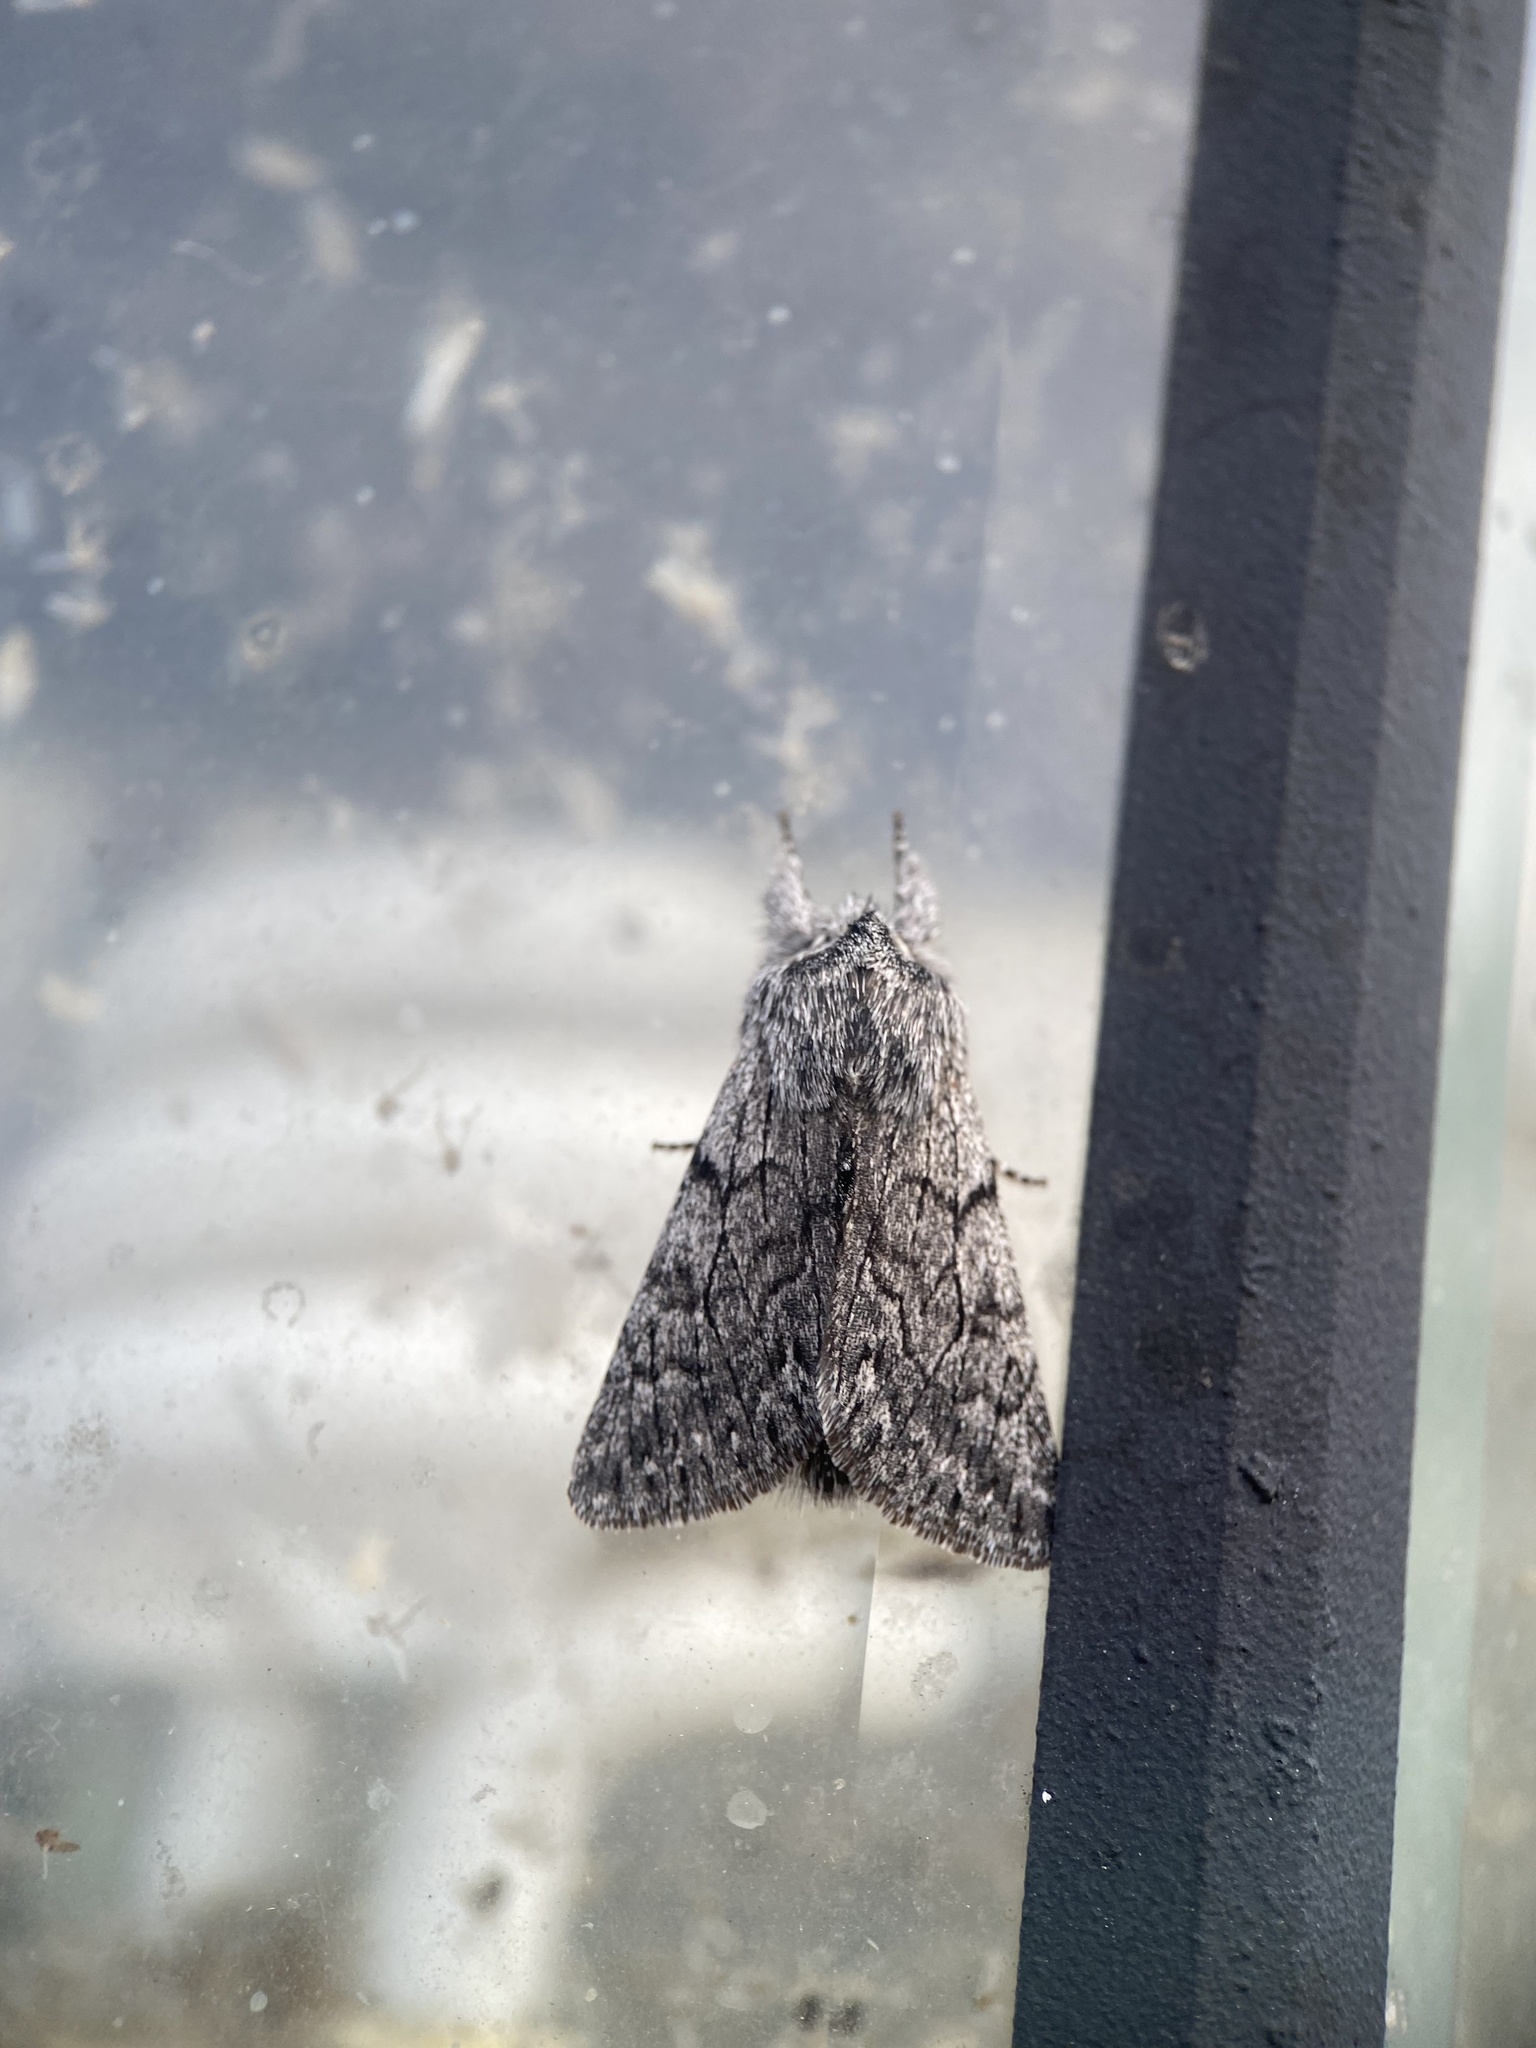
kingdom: Animalia
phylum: Arthropoda
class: Insecta
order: Lepidoptera
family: Noctuidae
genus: Pleromelloida
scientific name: Pleromelloida conserta
